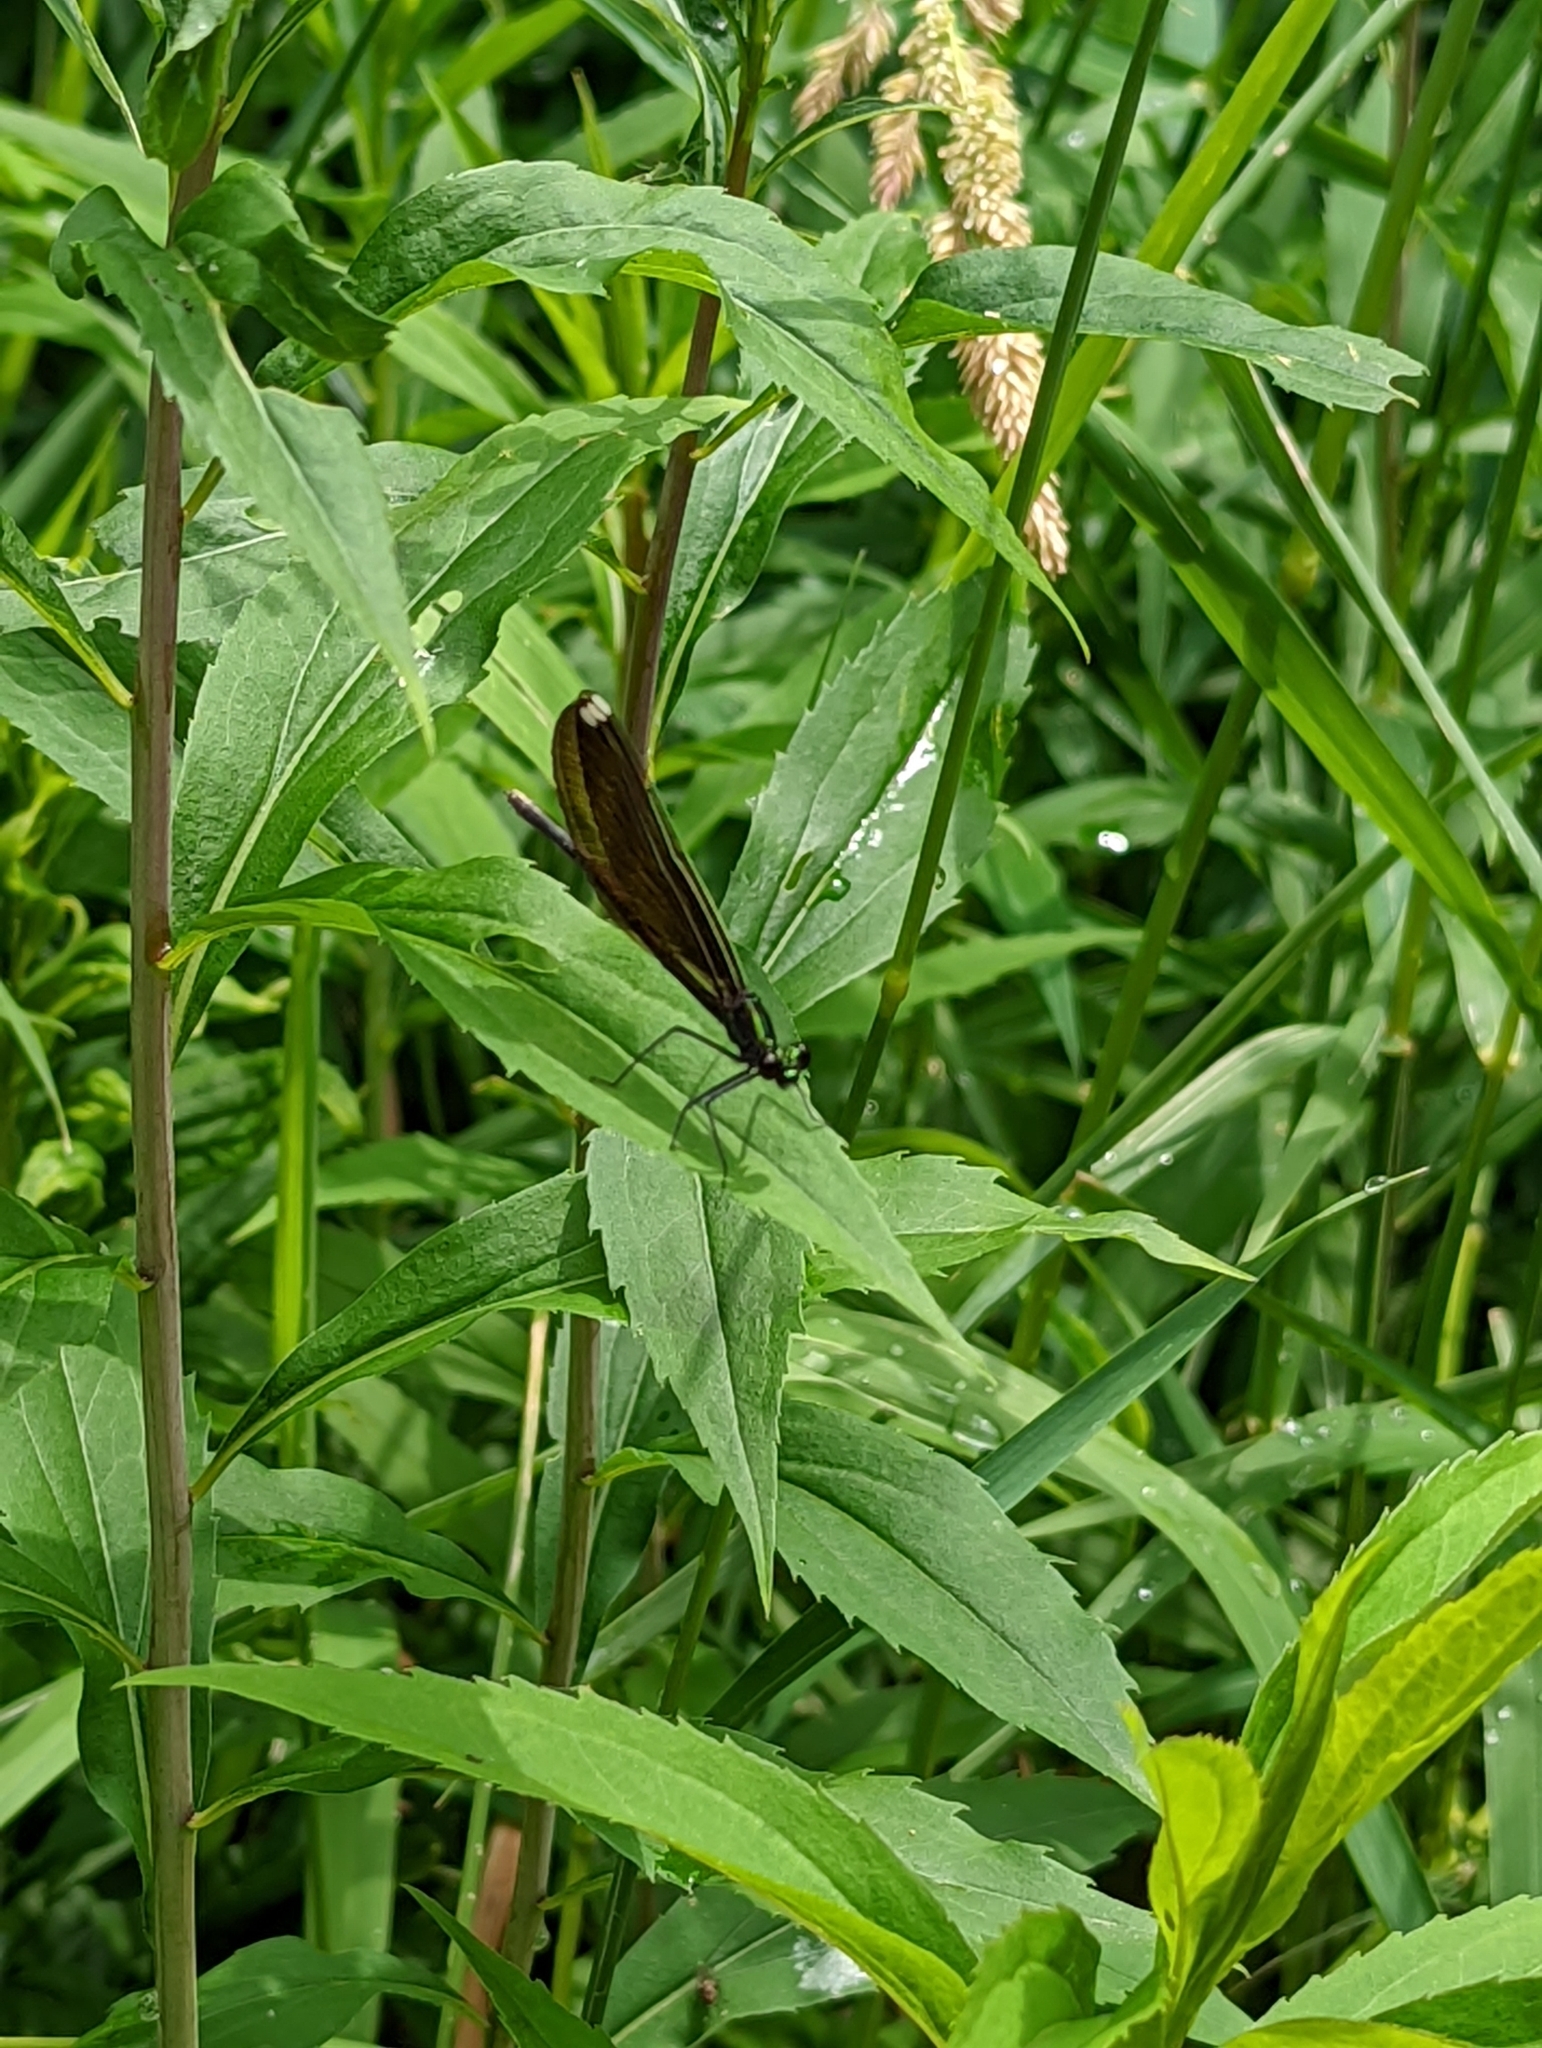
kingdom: Animalia
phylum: Arthropoda
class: Insecta
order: Odonata
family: Calopterygidae
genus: Calopteryx
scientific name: Calopteryx maculata
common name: Ebony jewelwing
